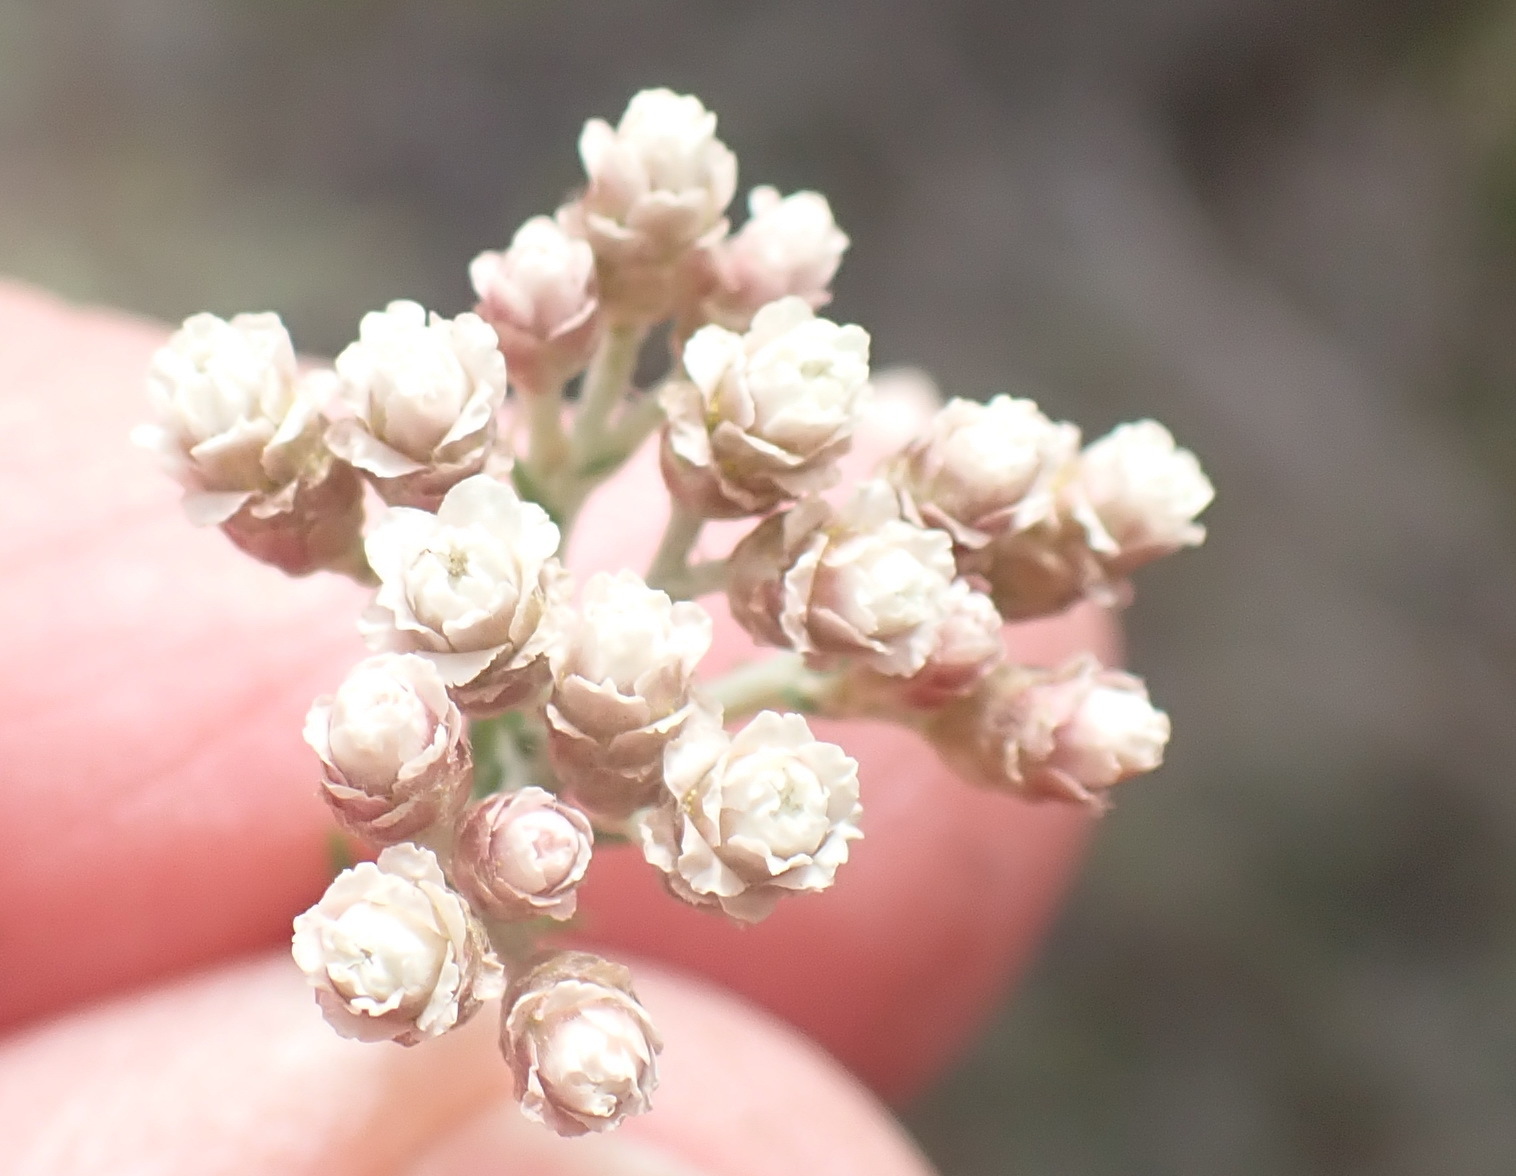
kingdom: Plantae
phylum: Tracheophyta
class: Magnoliopsida
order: Asterales
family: Asteraceae
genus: Helichrysum
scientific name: Helichrysum teretifolium
